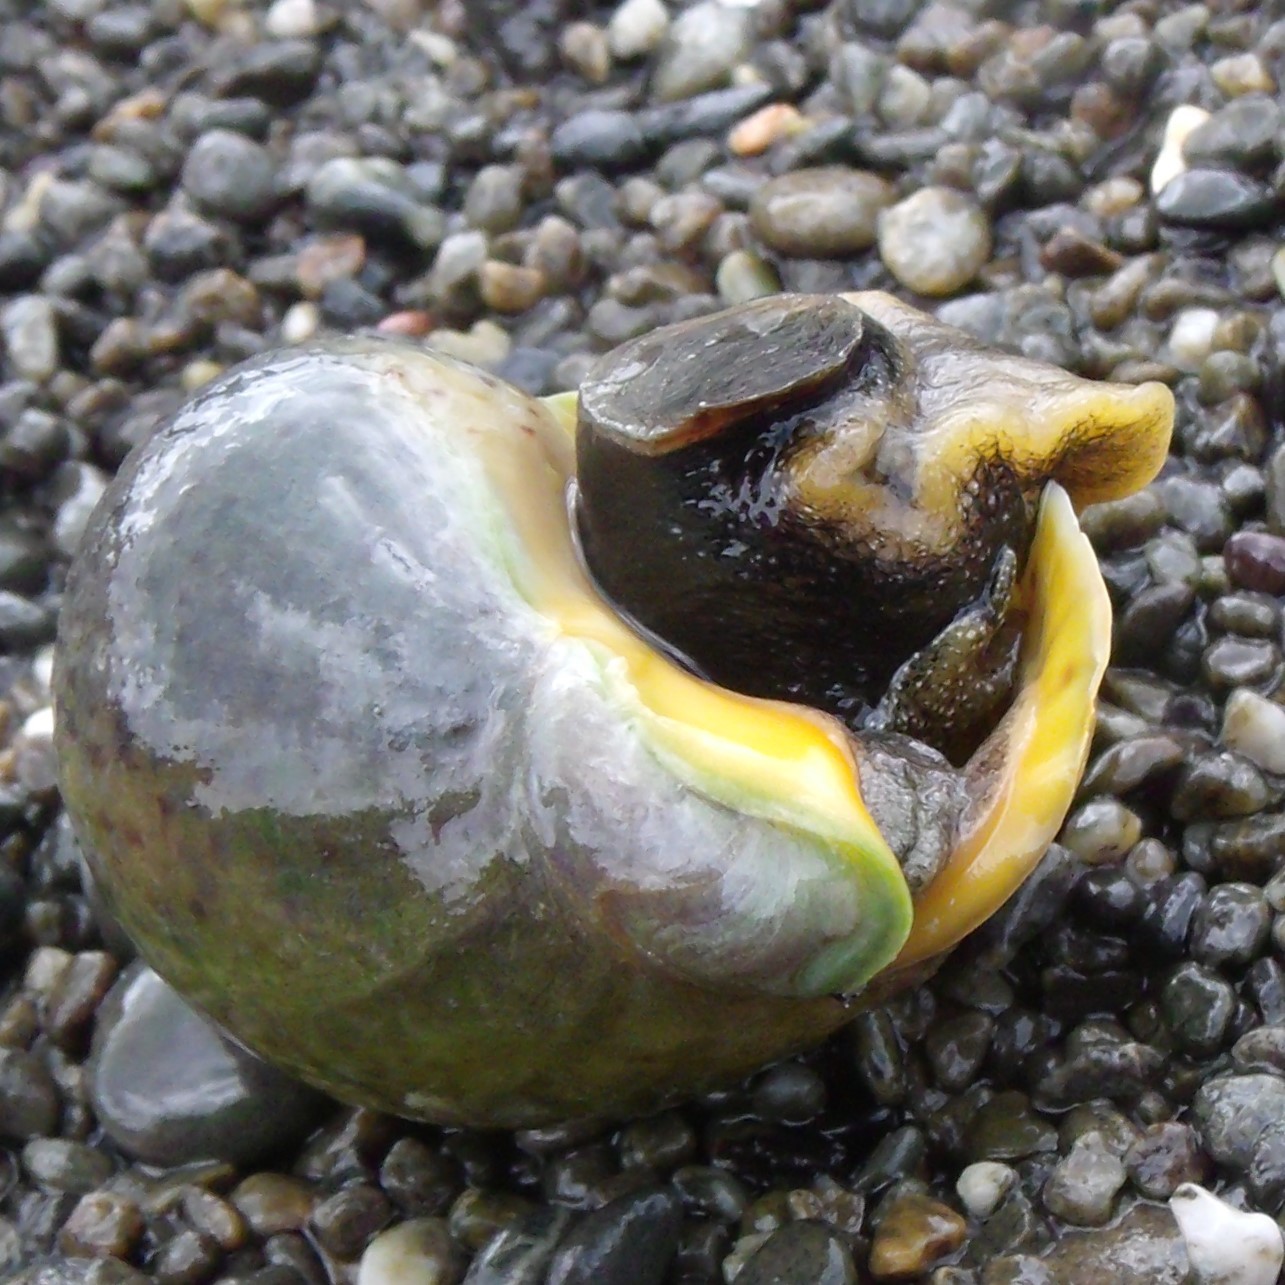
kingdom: Animalia
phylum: Mollusca
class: Gastropoda
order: Neogastropoda
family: Cominellidae
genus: Cominella
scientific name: Cominella adspersa
